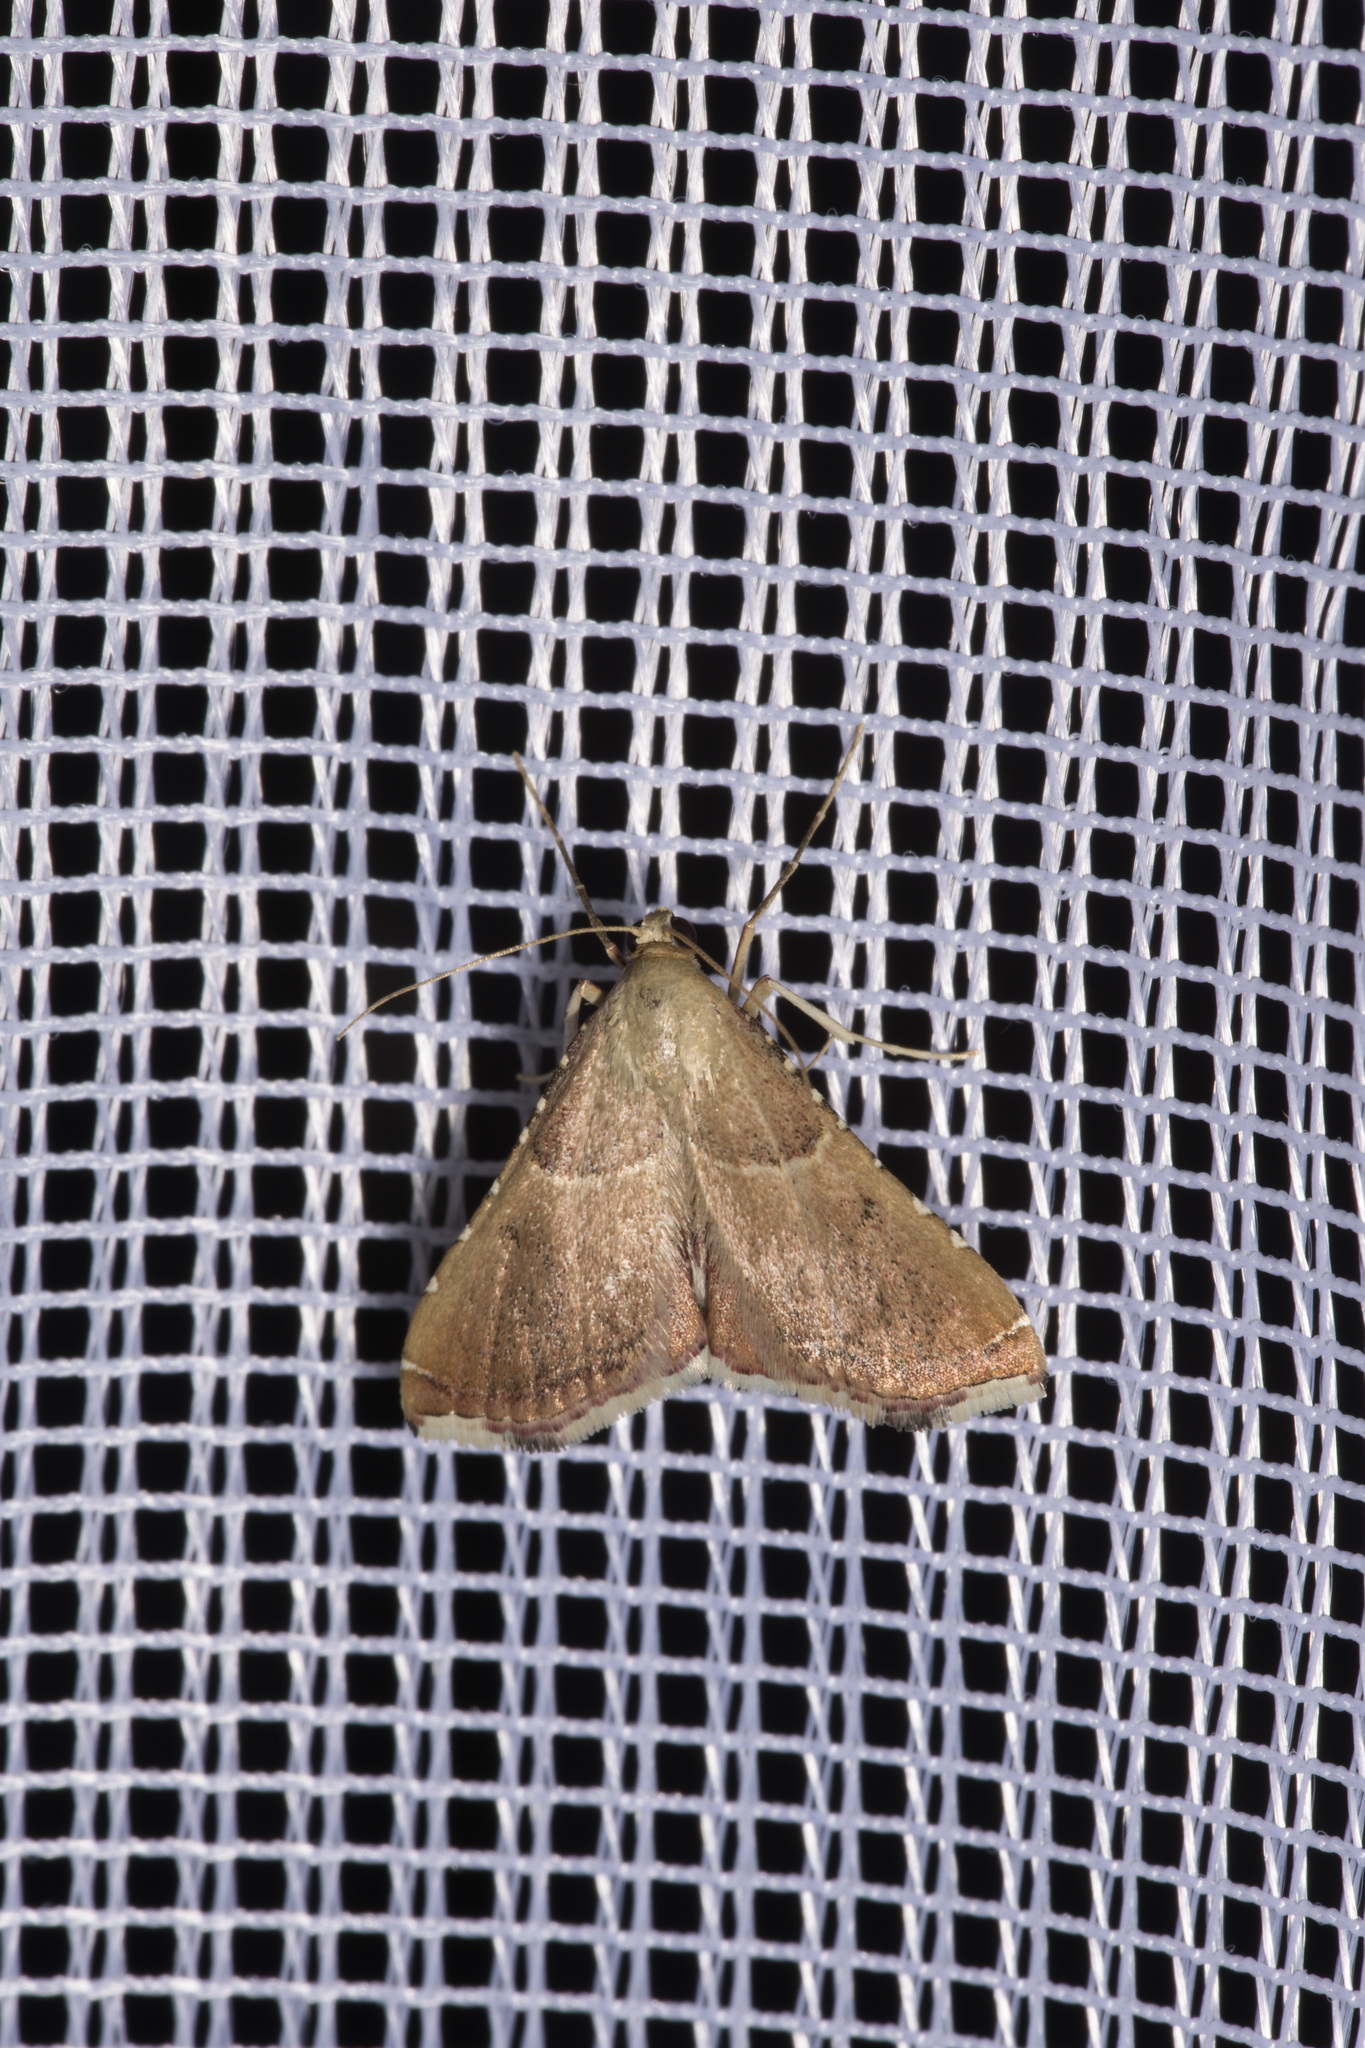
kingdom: Animalia
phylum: Arthropoda
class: Insecta
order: Lepidoptera
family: Pyralidae
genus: Endotricha
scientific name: Endotricha flammealis
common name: Rosy tabby
